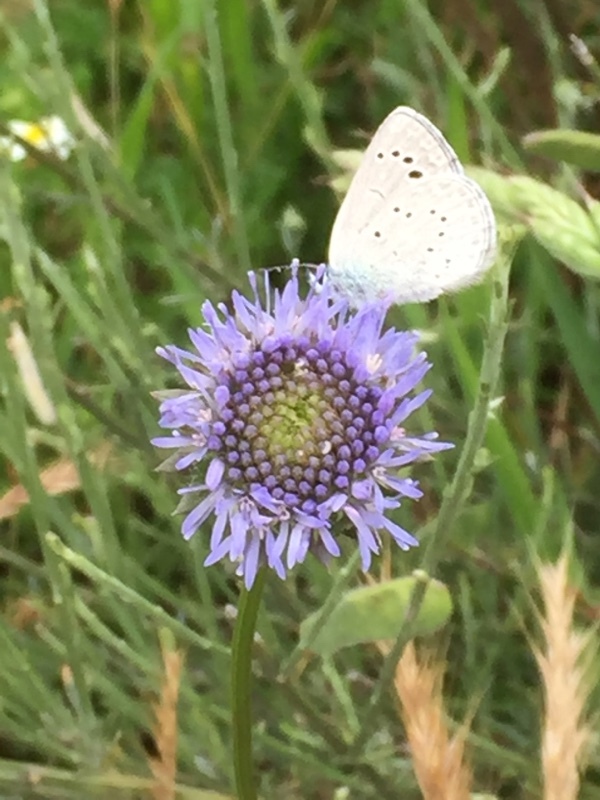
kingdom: Animalia
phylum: Arthropoda
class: Insecta
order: Lepidoptera
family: Lycaenidae
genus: Glaucopsyche
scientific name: Glaucopsyche melanops
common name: Black-eyed blue
